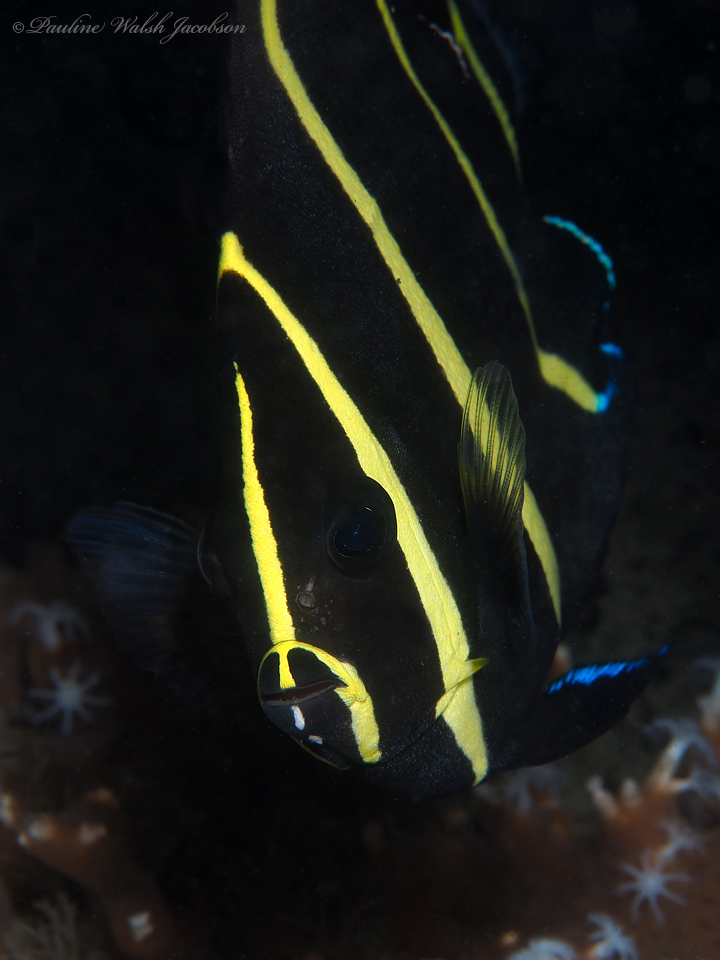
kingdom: Animalia
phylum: Chordata
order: Perciformes
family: Pomacanthidae
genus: Pomacanthus
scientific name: Pomacanthus arcuatus
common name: Gray angelfish
